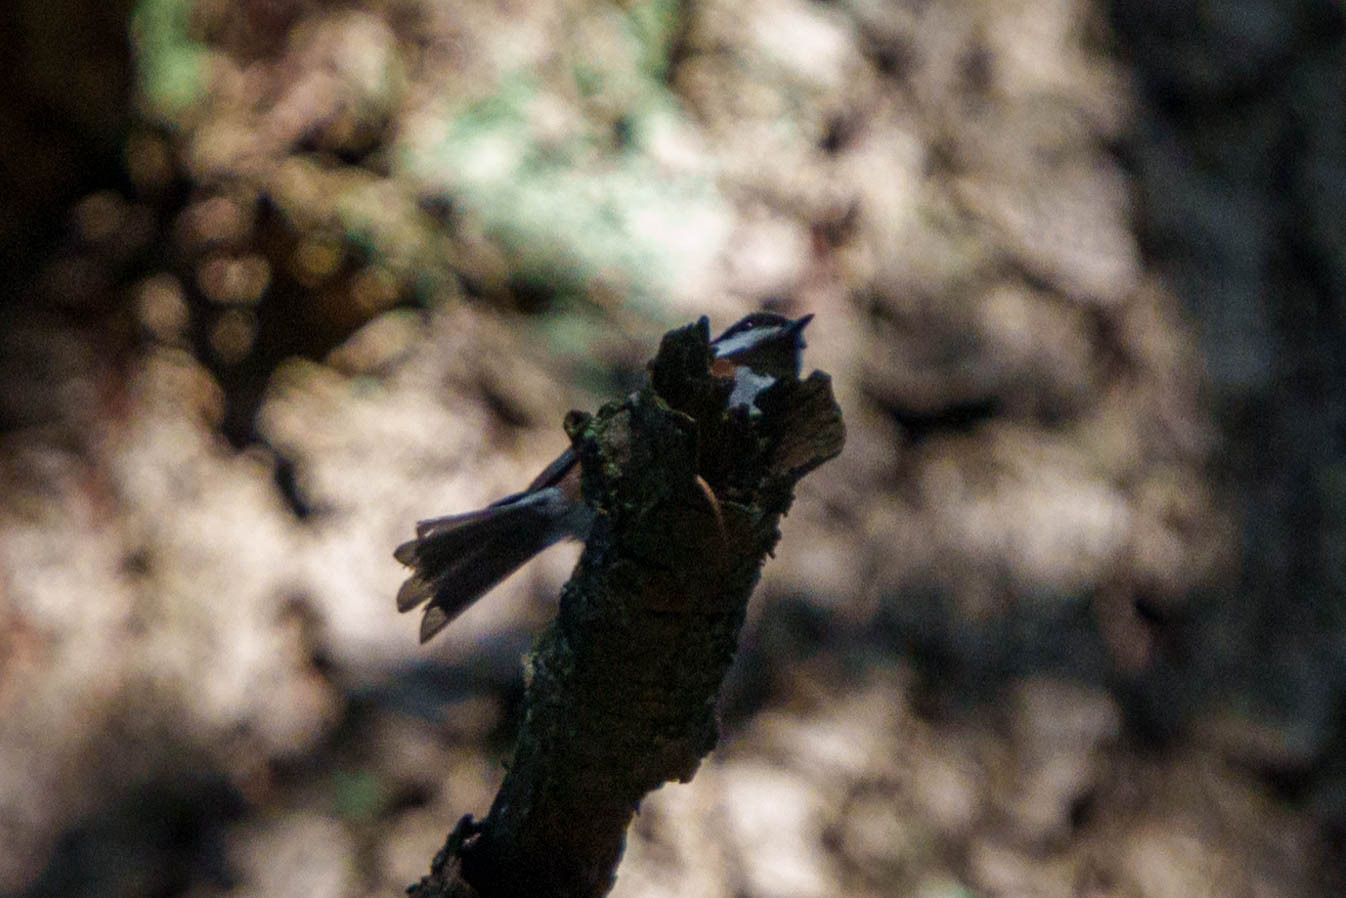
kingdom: Animalia
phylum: Chordata
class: Aves
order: Passeriformes
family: Paridae
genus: Poecile
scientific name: Poecile rufescens
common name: Chestnut-backed chickadee
